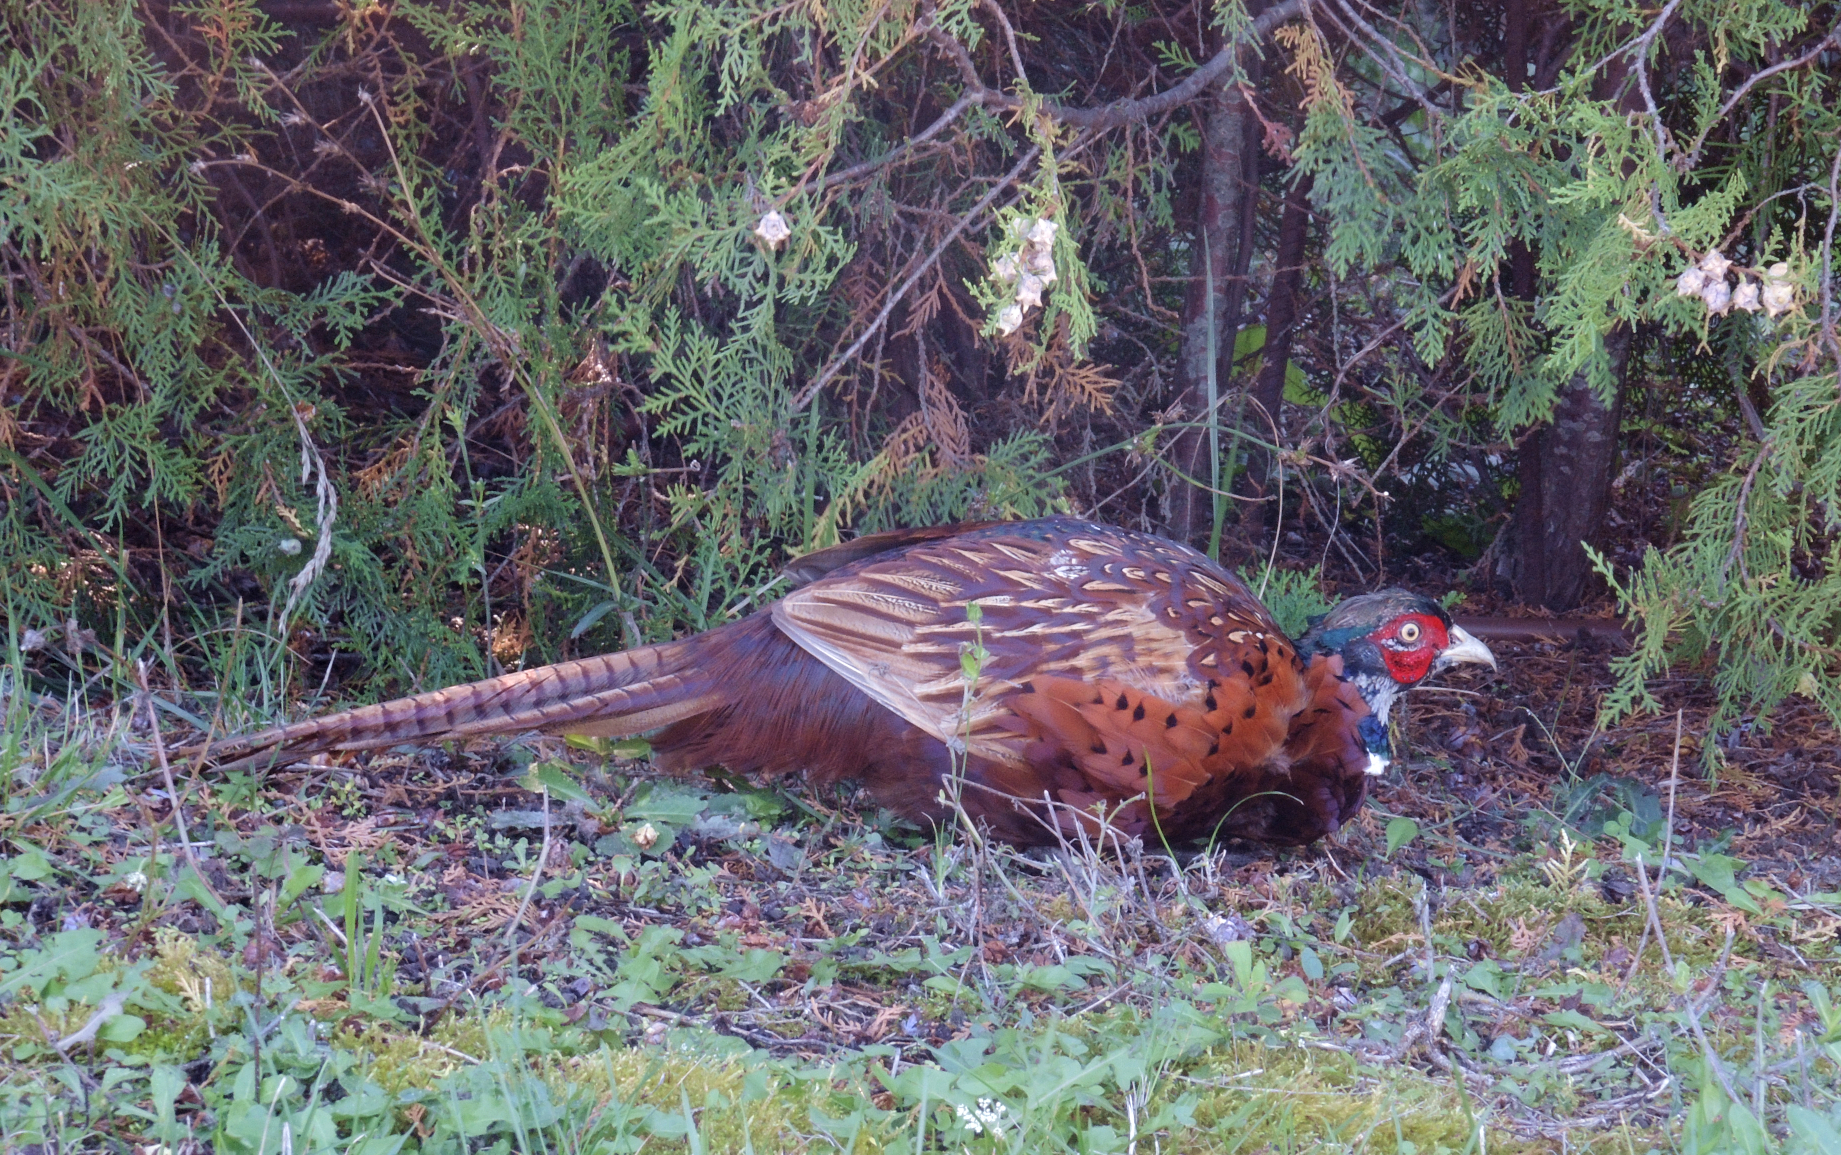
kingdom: Animalia
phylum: Chordata
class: Aves
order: Galliformes
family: Phasianidae
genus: Phasianus
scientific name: Phasianus colchicus
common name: Common pheasant
